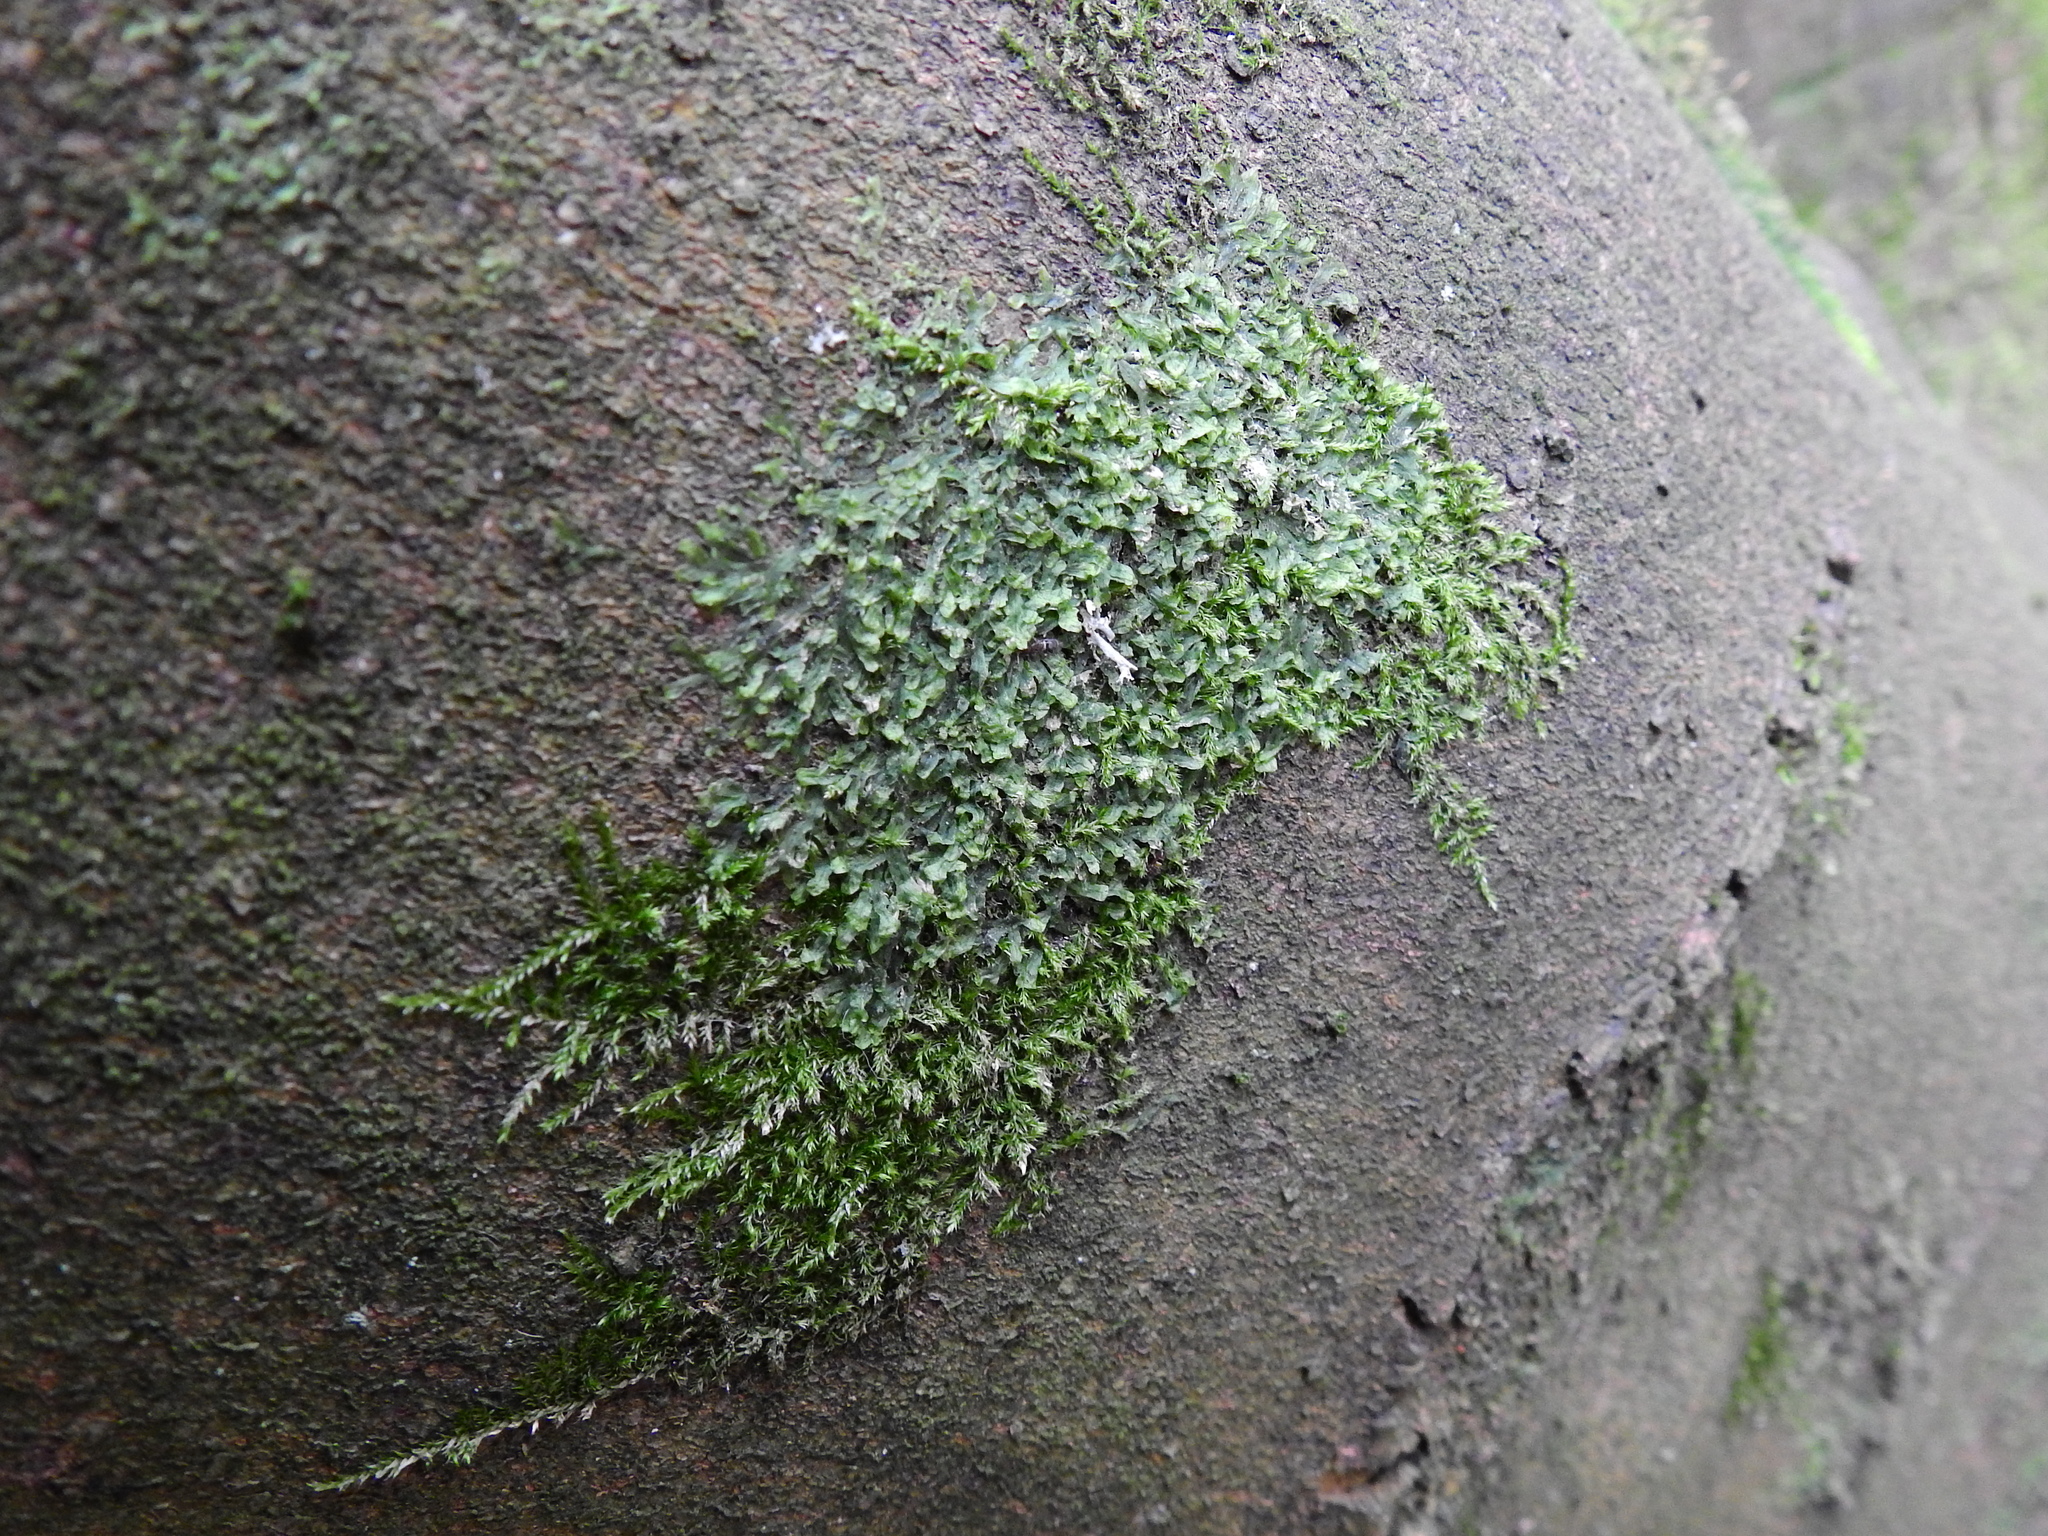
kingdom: Plantae
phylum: Marchantiophyta
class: Jungermanniopsida
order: Metzgeriales
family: Metzgeriaceae
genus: Metzgeria
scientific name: Metzgeria furcata
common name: Forked veilwort
